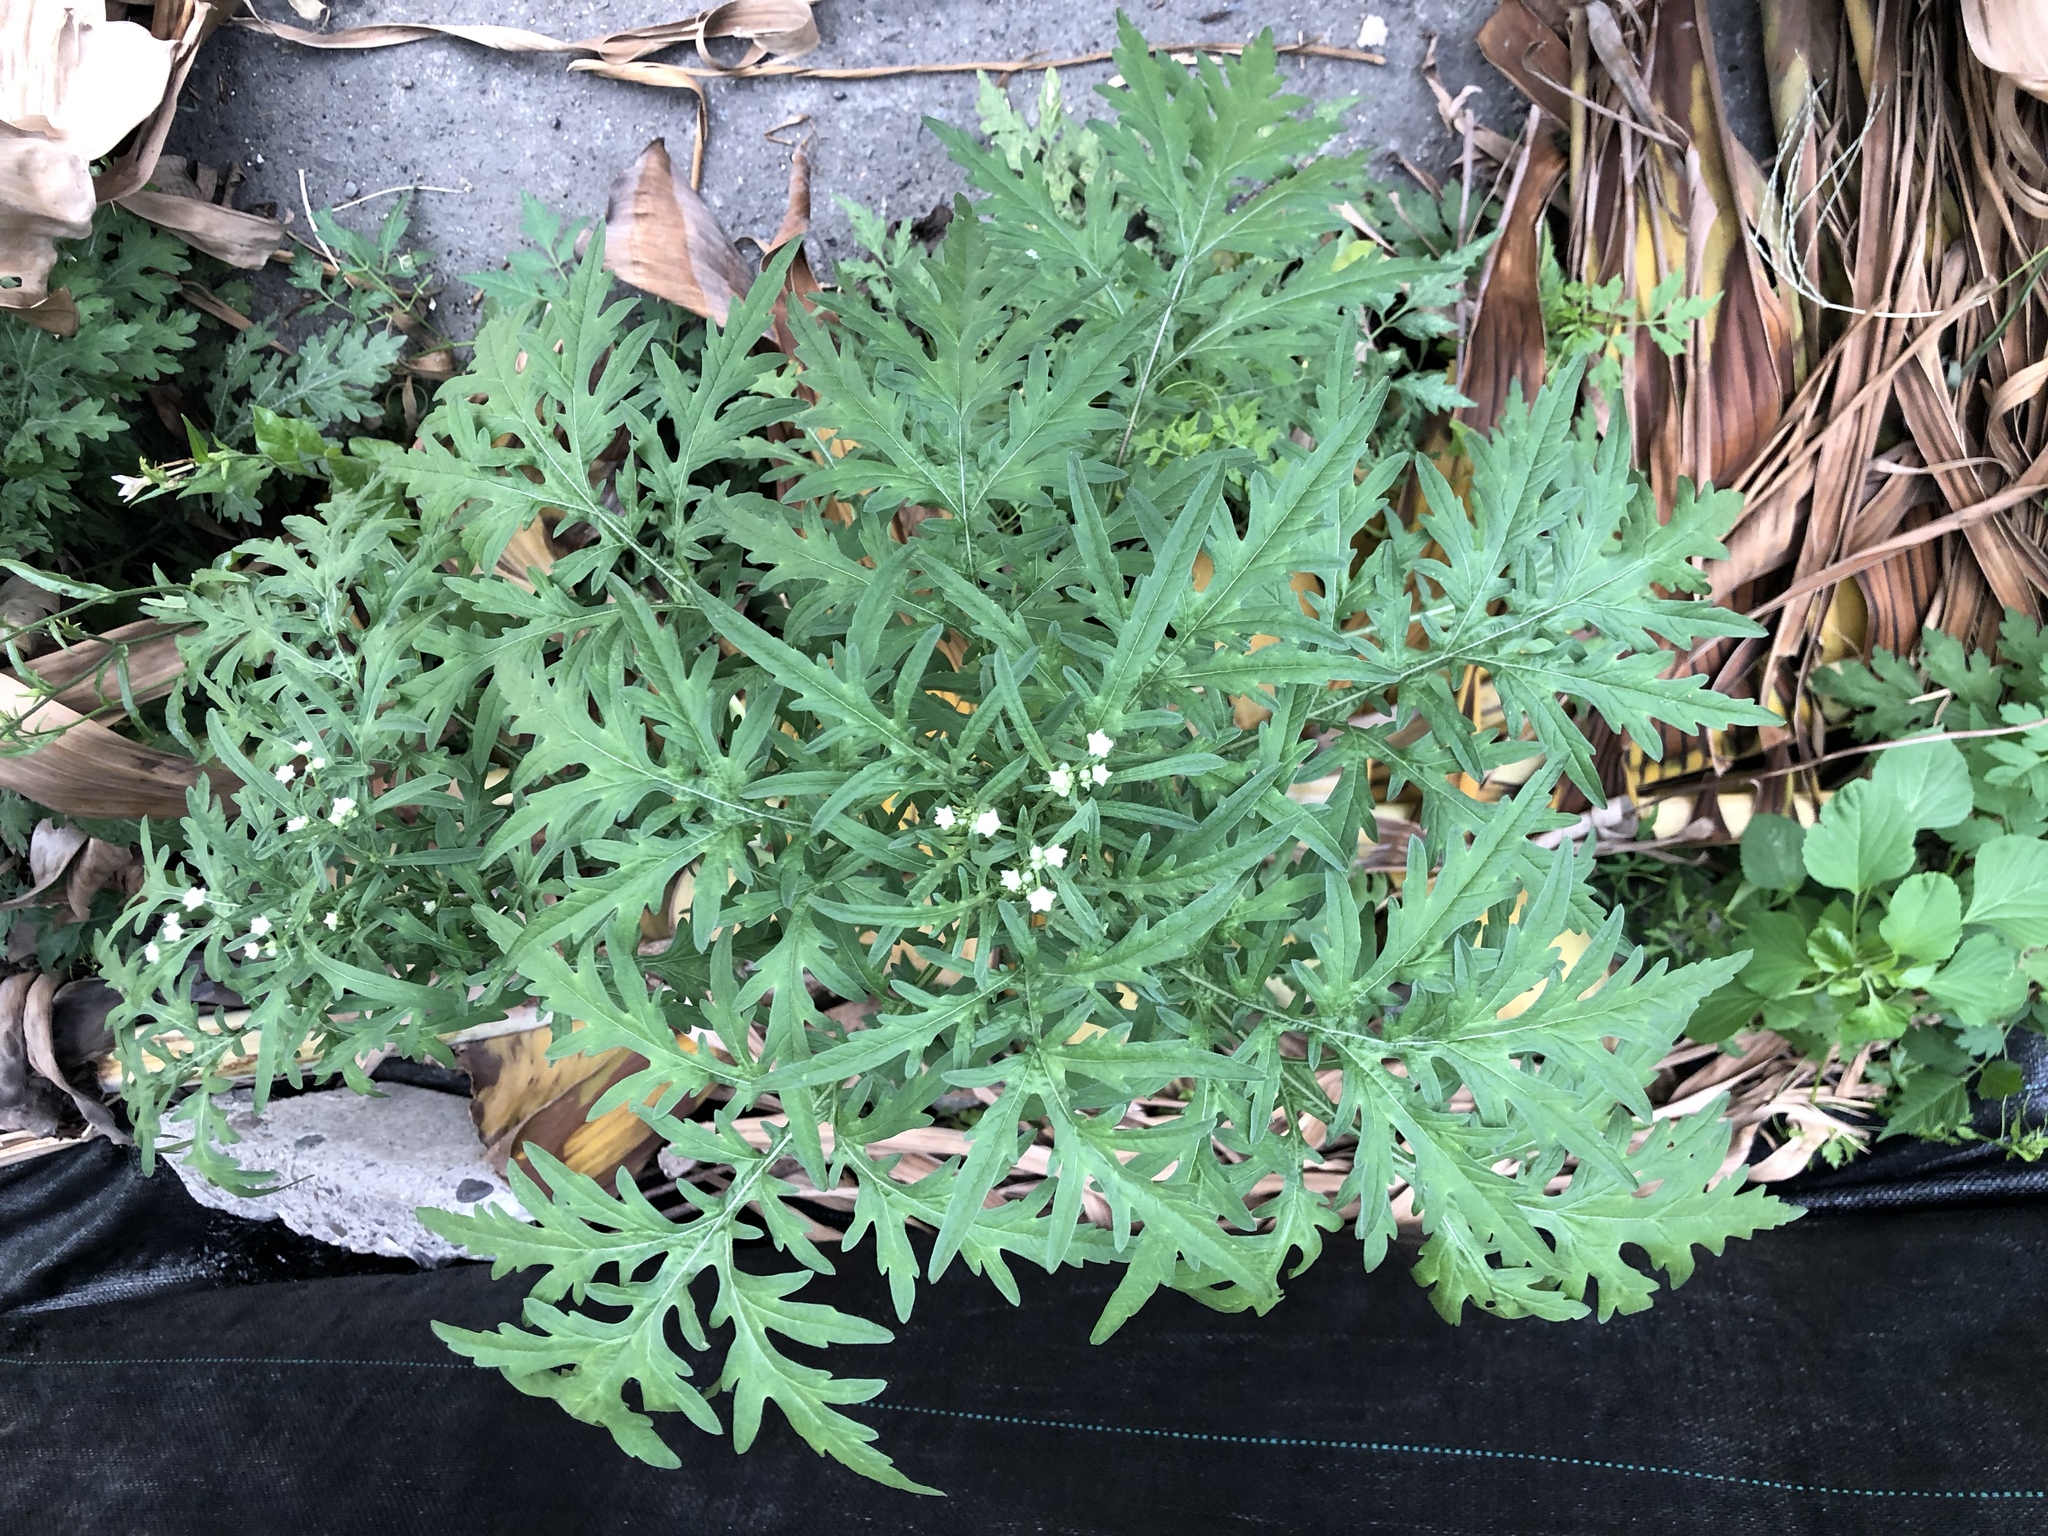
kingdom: Plantae
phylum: Tracheophyta
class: Magnoliopsida
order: Asterales
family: Asteraceae
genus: Parthenium
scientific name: Parthenium hysterophorus
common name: Santa maria feverfew
